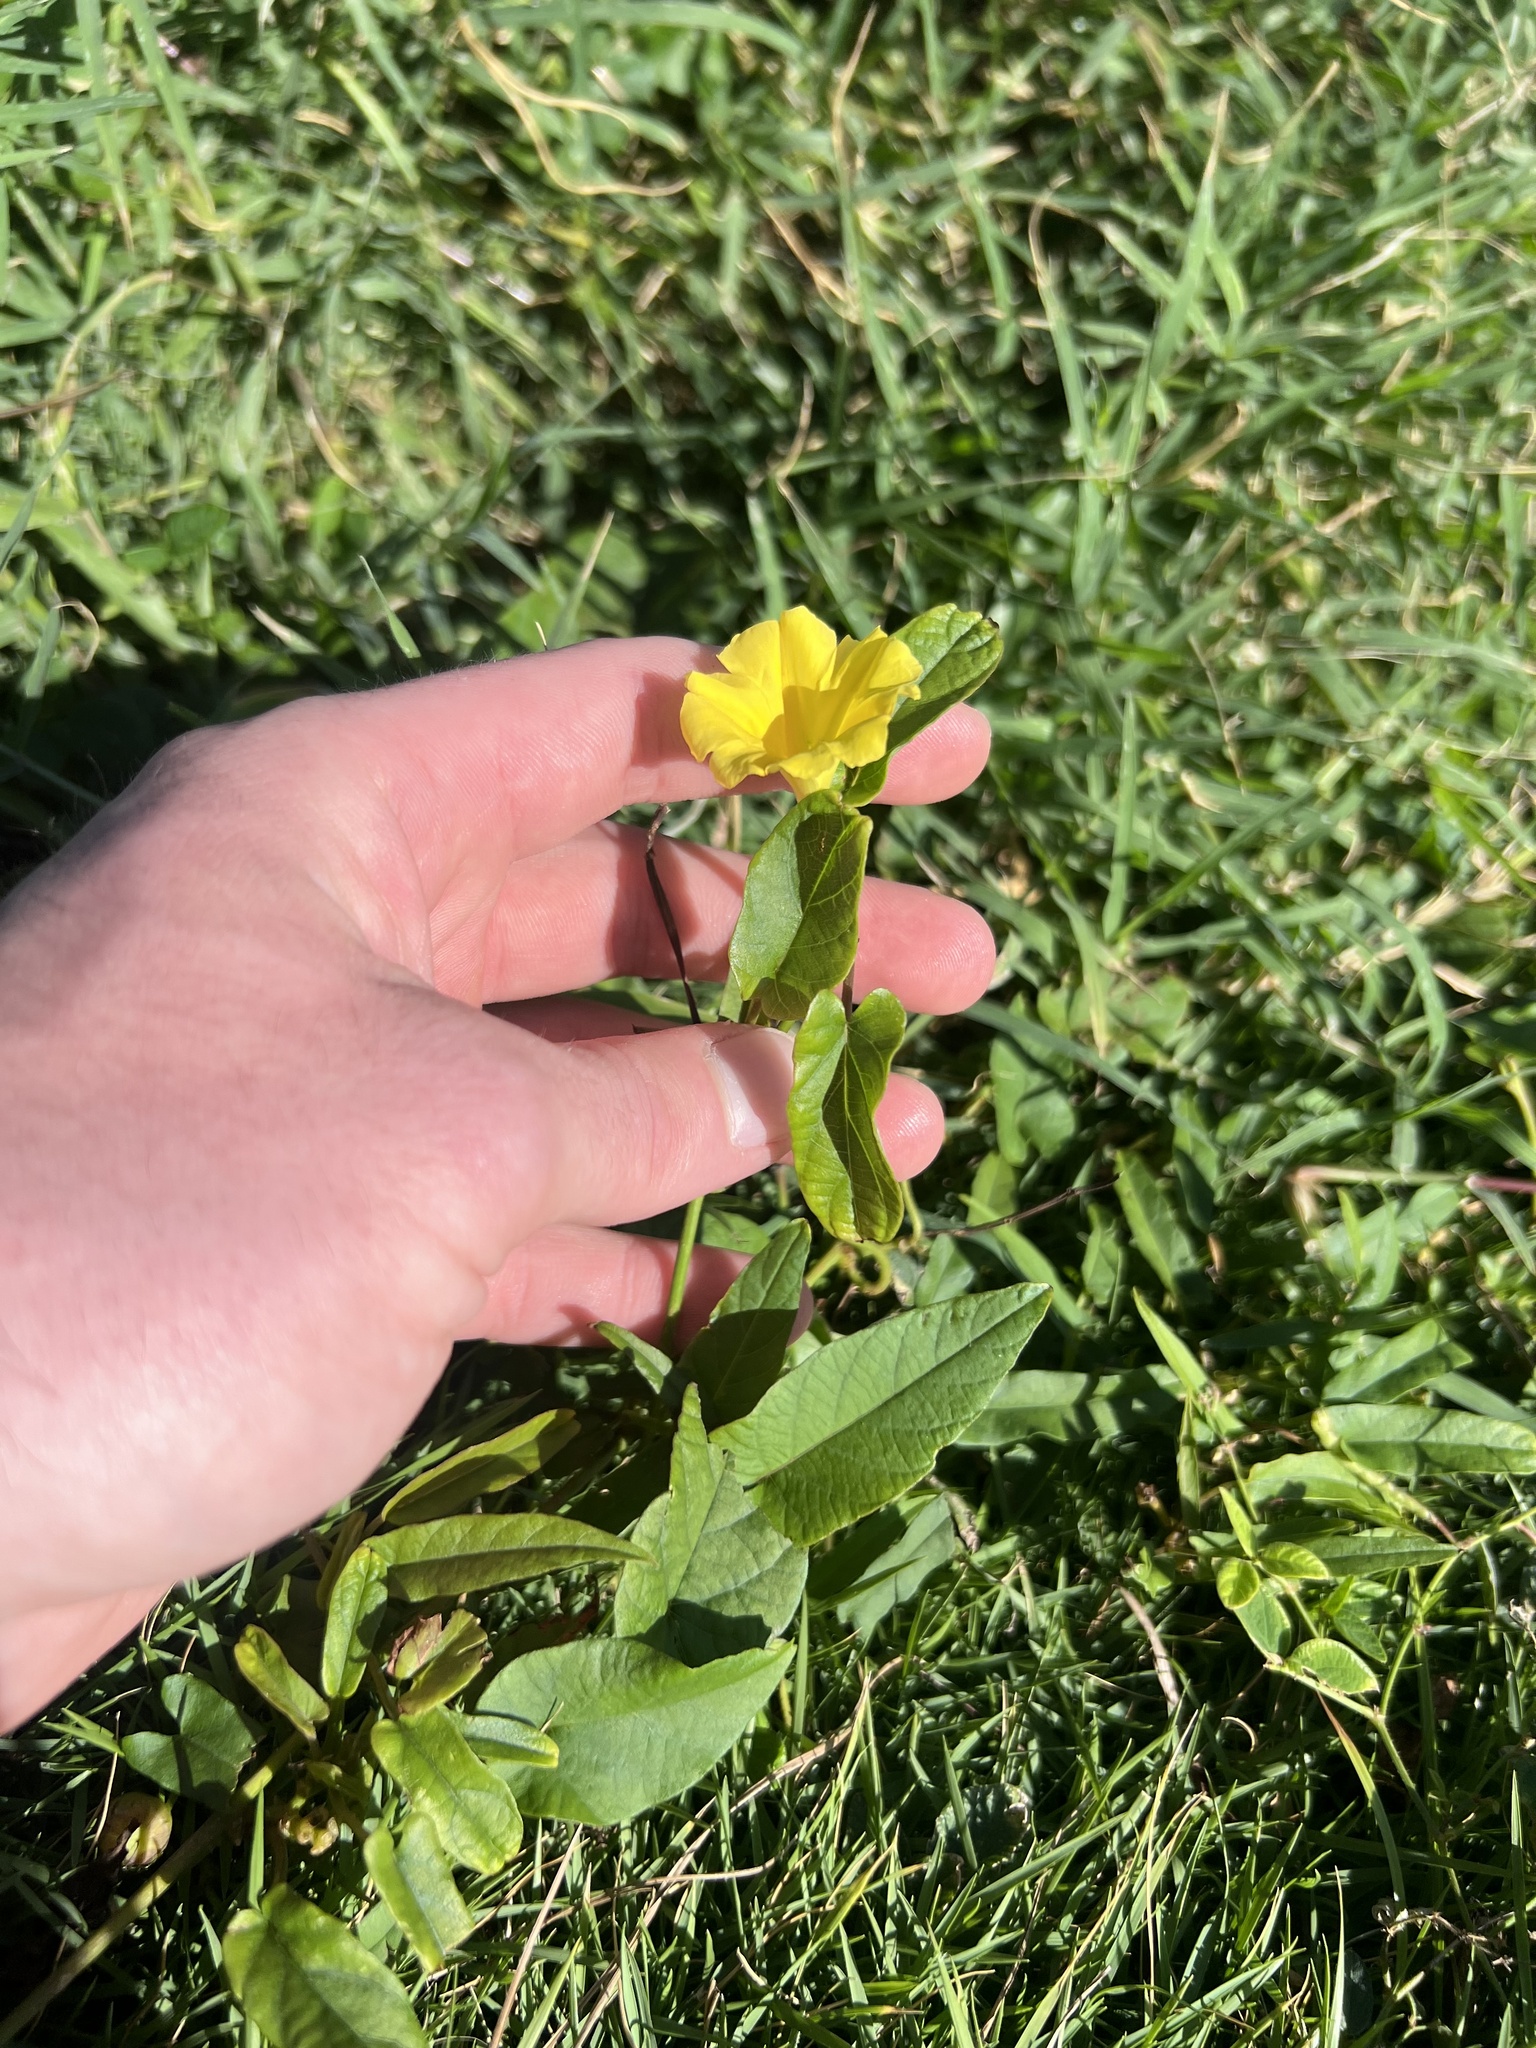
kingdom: Plantae
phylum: Tracheophyta
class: Magnoliopsida
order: Solanales
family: Convolvulaceae
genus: Camonea
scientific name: Camonea umbellata
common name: Hogvine
